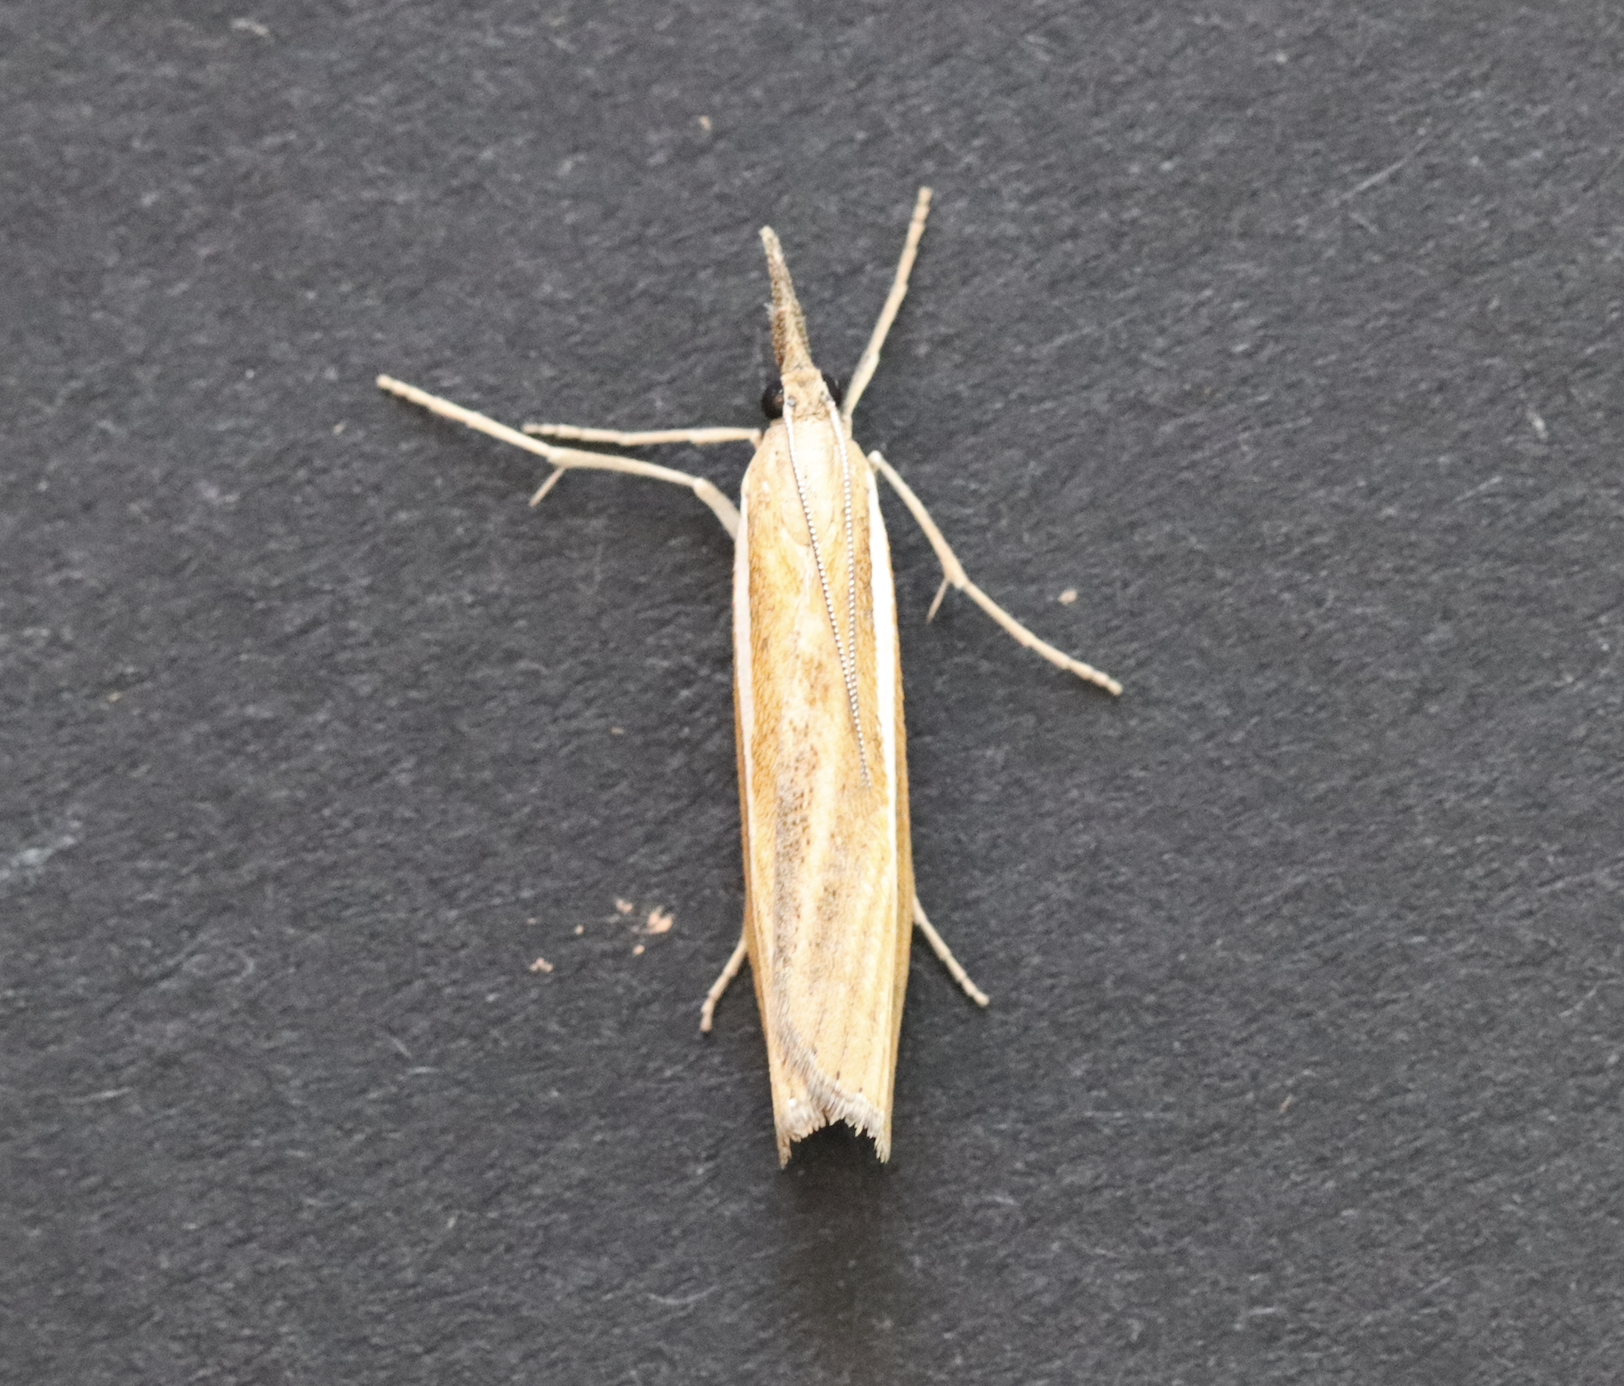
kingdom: Animalia
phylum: Arthropoda
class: Insecta
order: Lepidoptera
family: Crambidae
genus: Agriphila
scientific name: Agriphila tristellus
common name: Common grass-veneer
